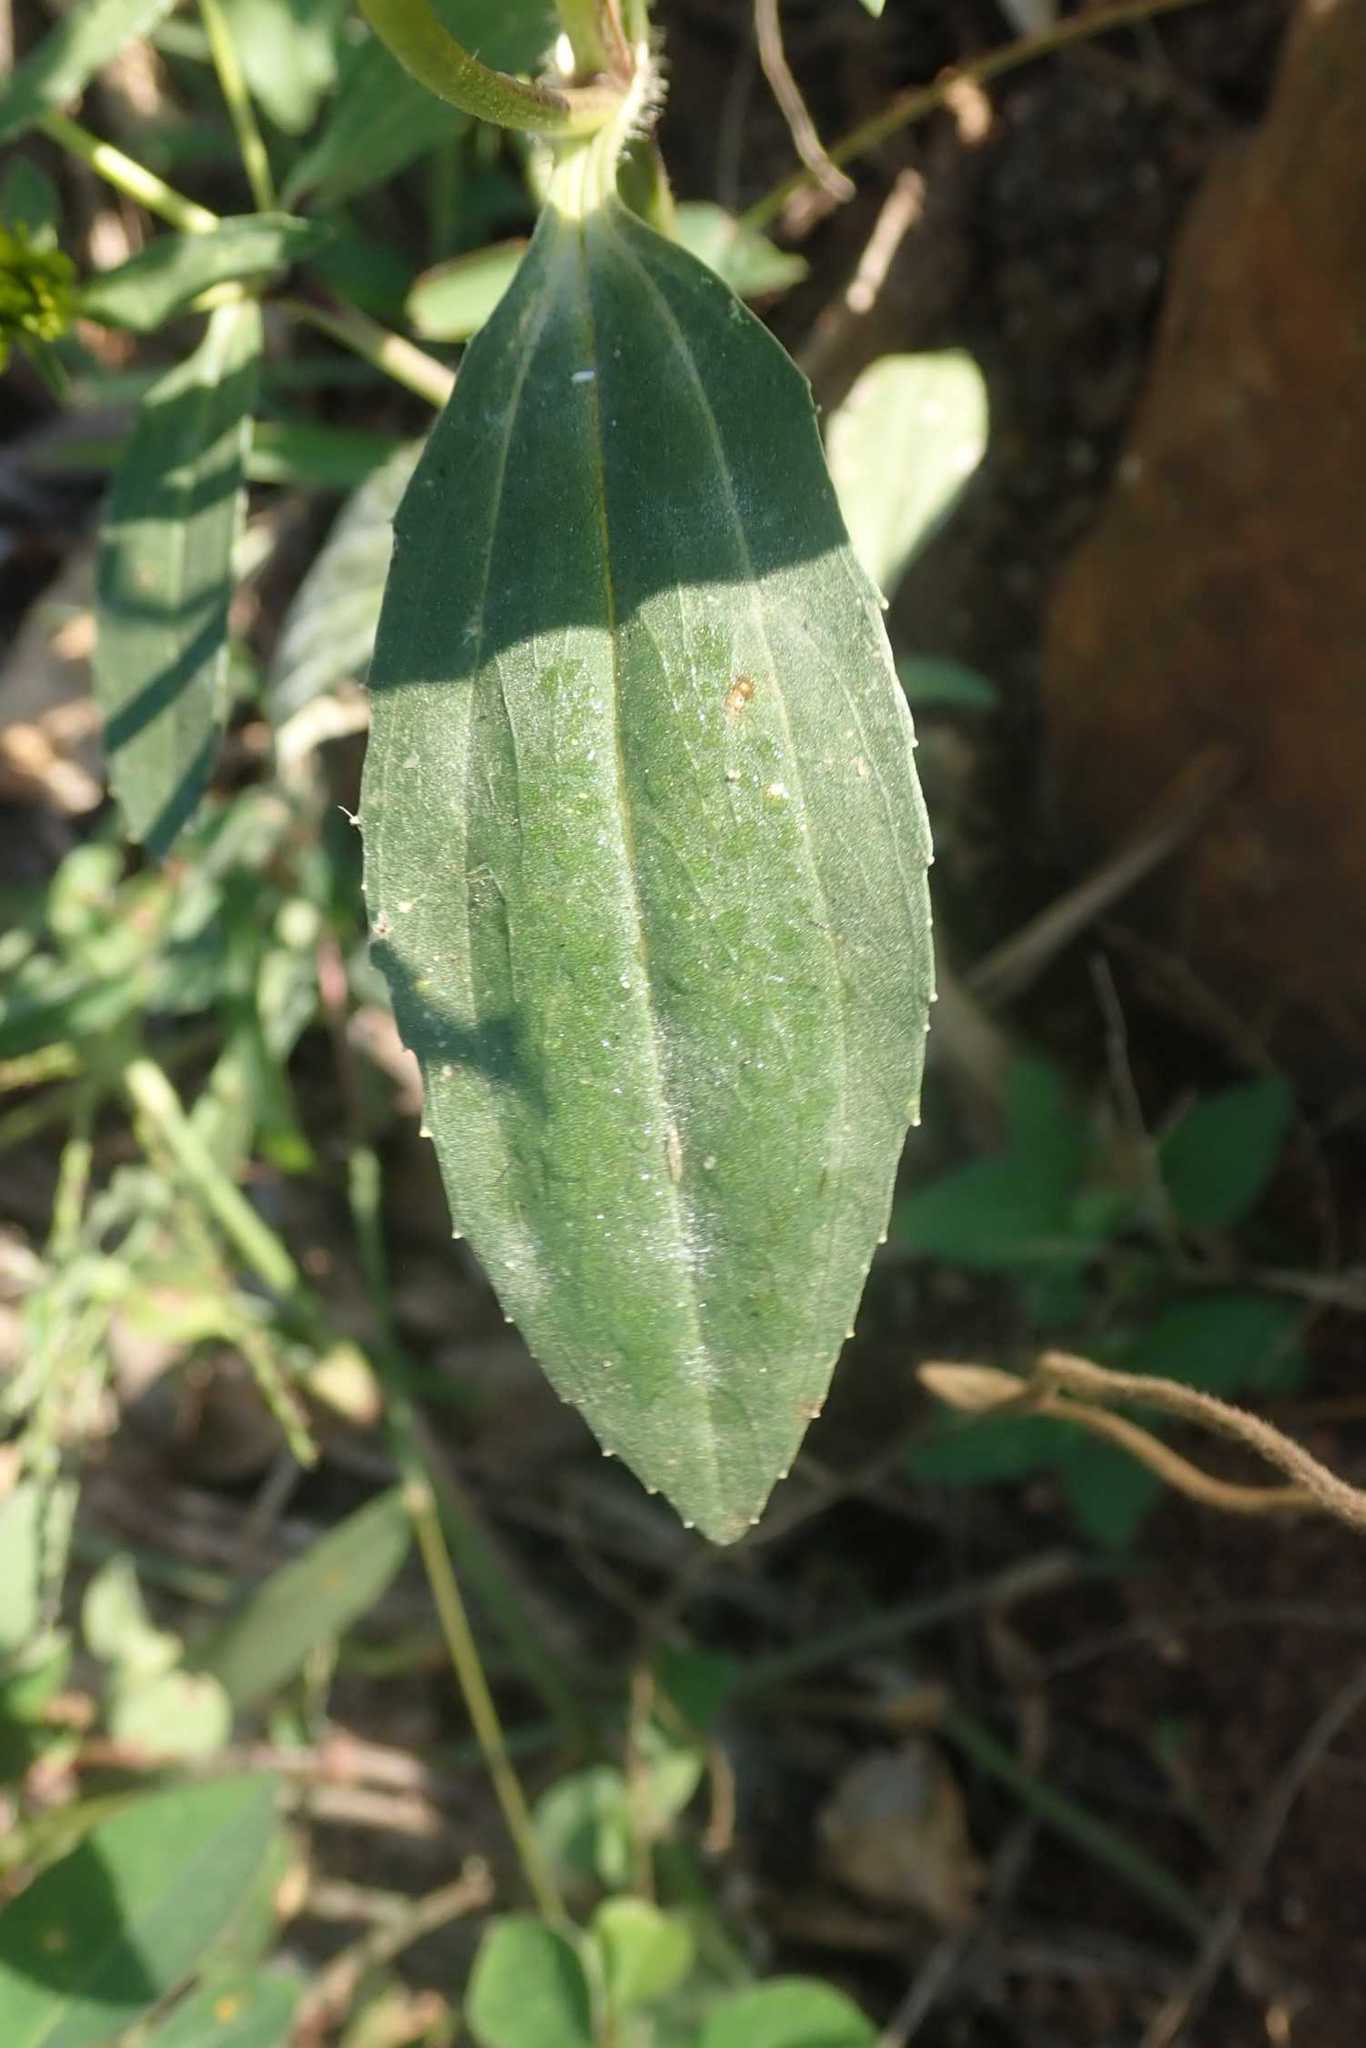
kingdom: Plantae
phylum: Tracheophyta
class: Magnoliopsida
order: Asterales
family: Asteraceae
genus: Flaveria
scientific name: Flaveria bidentis
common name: Coastal plain yellowtops
